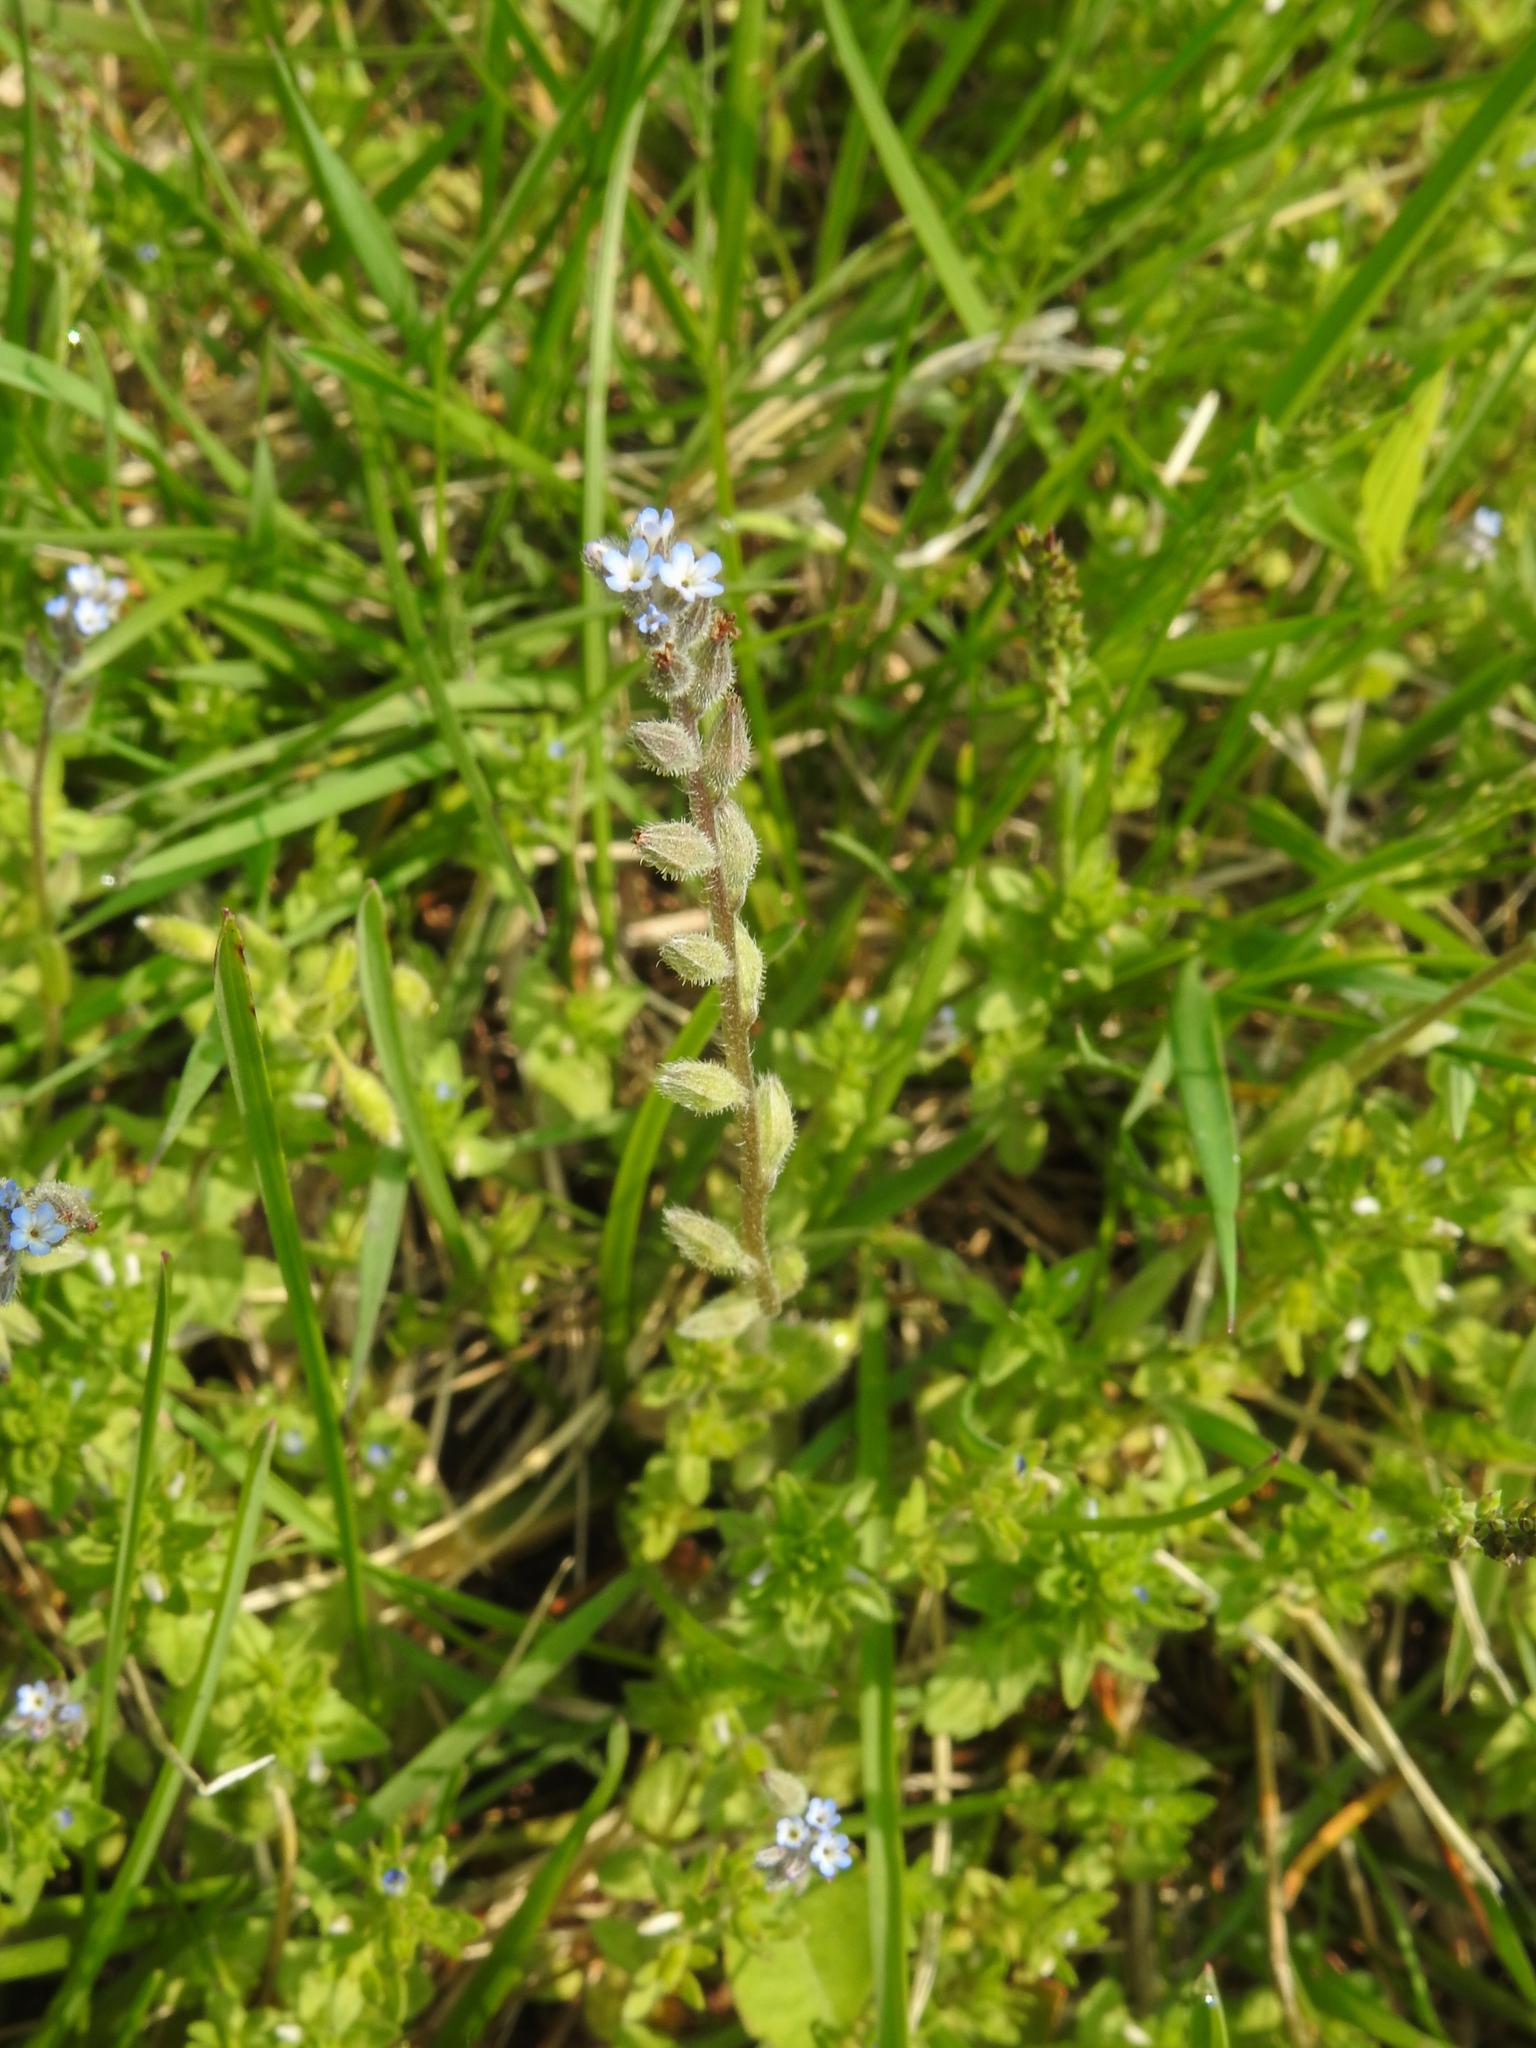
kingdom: Plantae
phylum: Tracheophyta
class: Magnoliopsida
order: Boraginales
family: Boraginaceae
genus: Myosotis
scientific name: Myosotis stricta
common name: Strict forget-me-not
